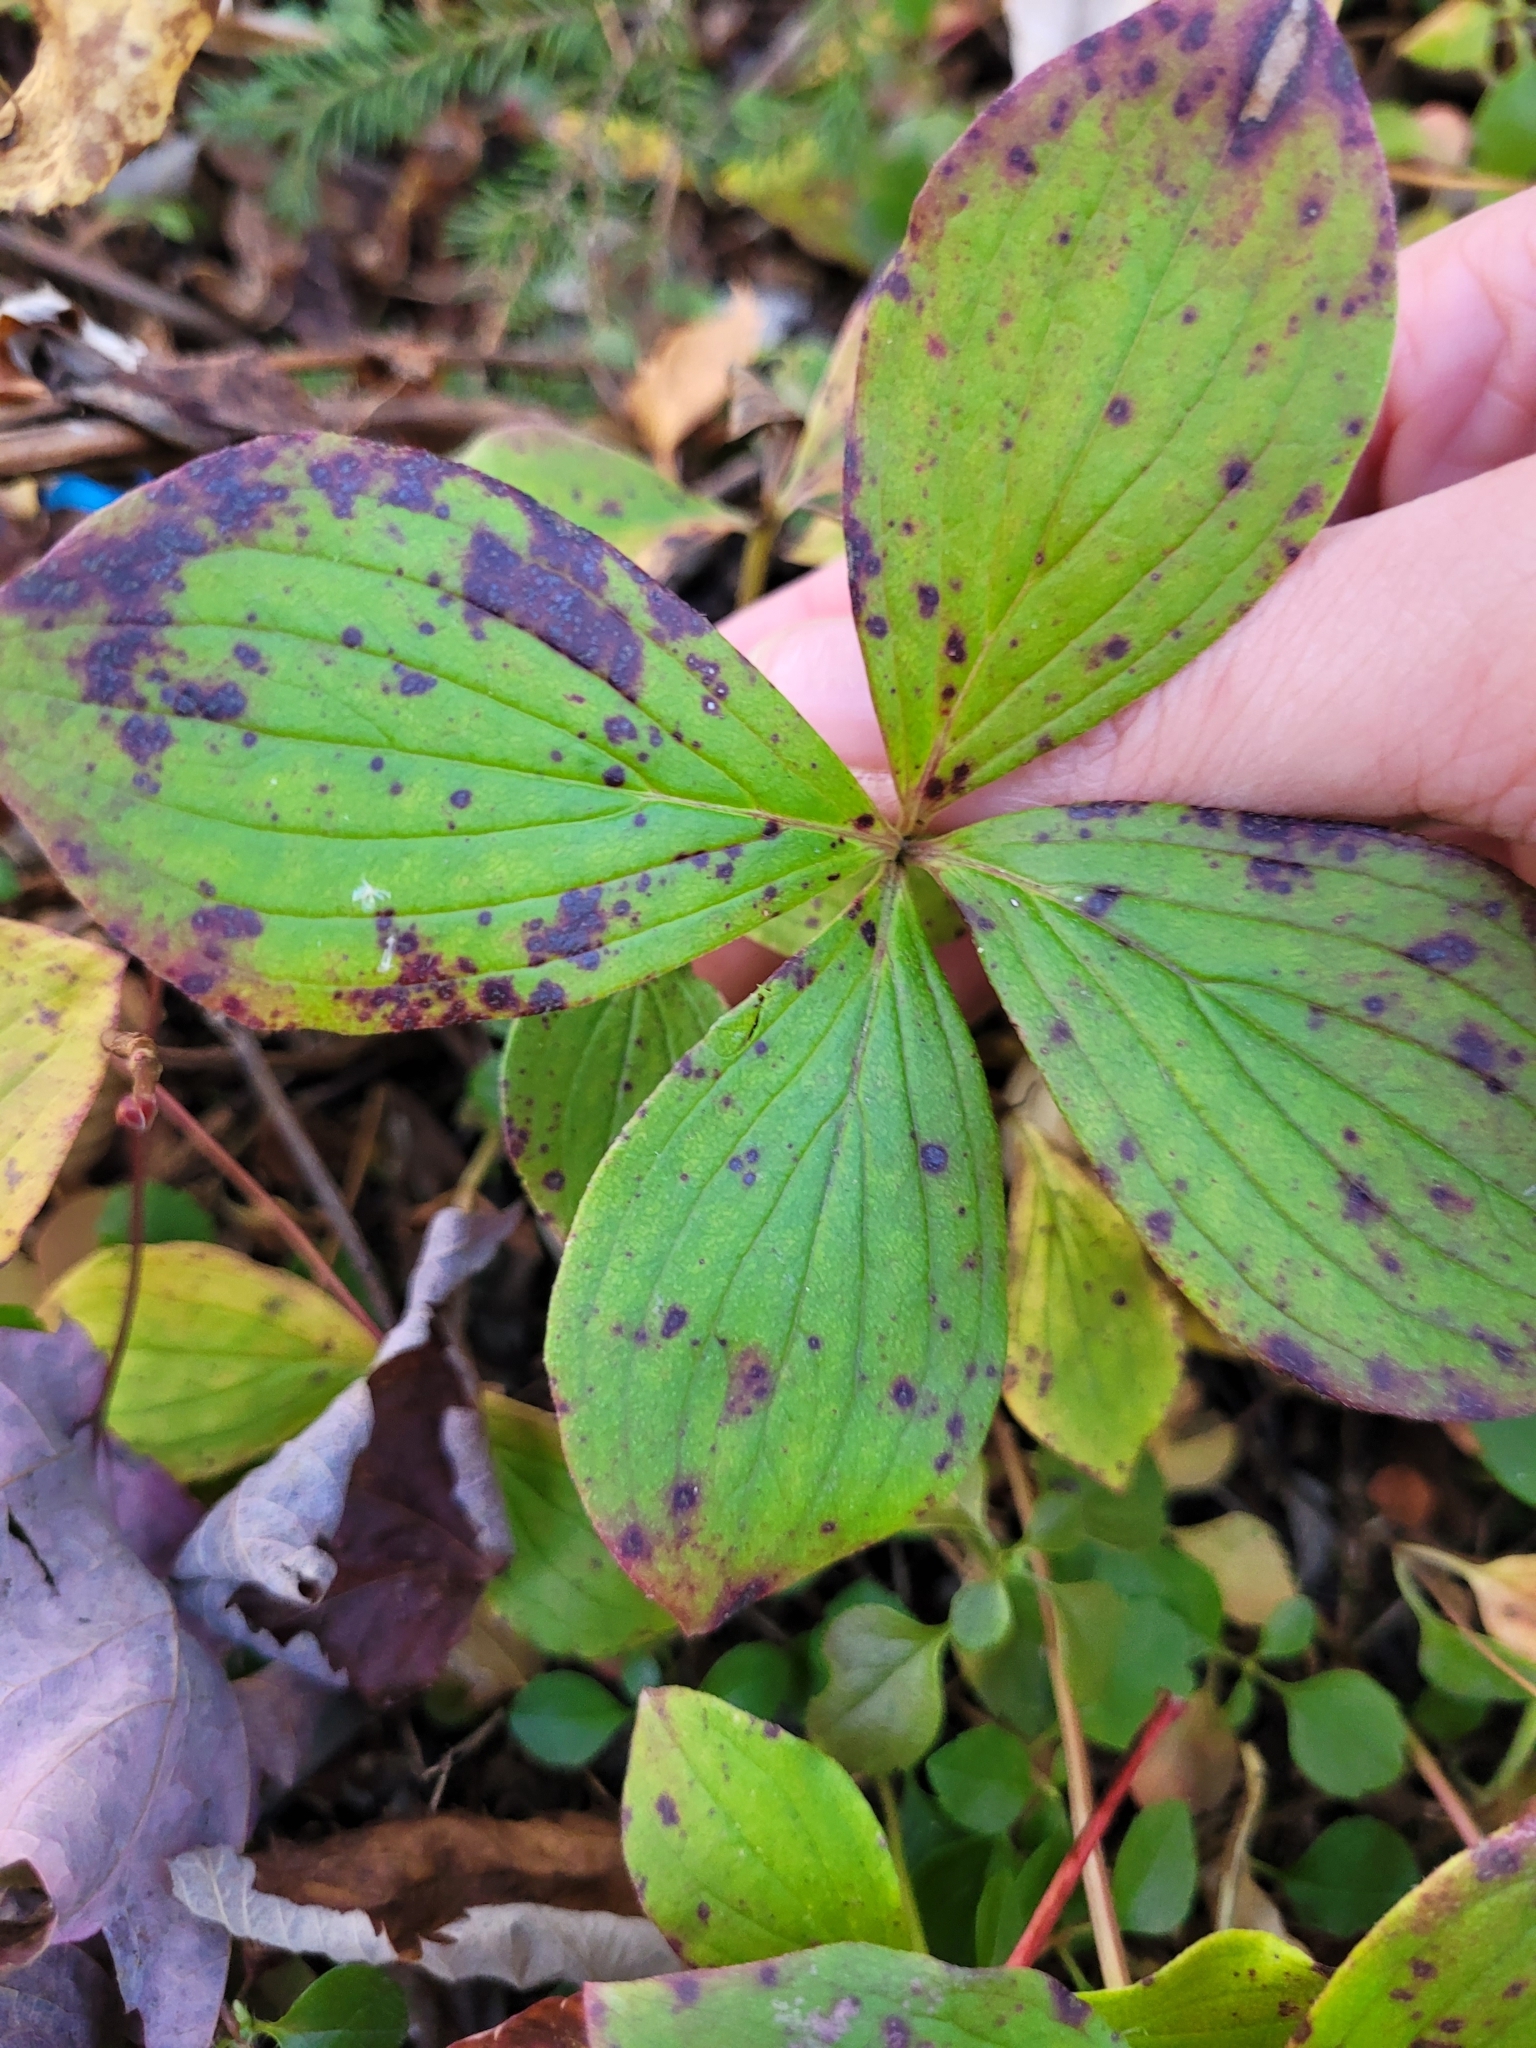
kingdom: Plantae
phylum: Tracheophyta
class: Magnoliopsida
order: Cornales
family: Cornaceae
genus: Cornus
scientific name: Cornus canadensis
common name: Creeping dogwood
